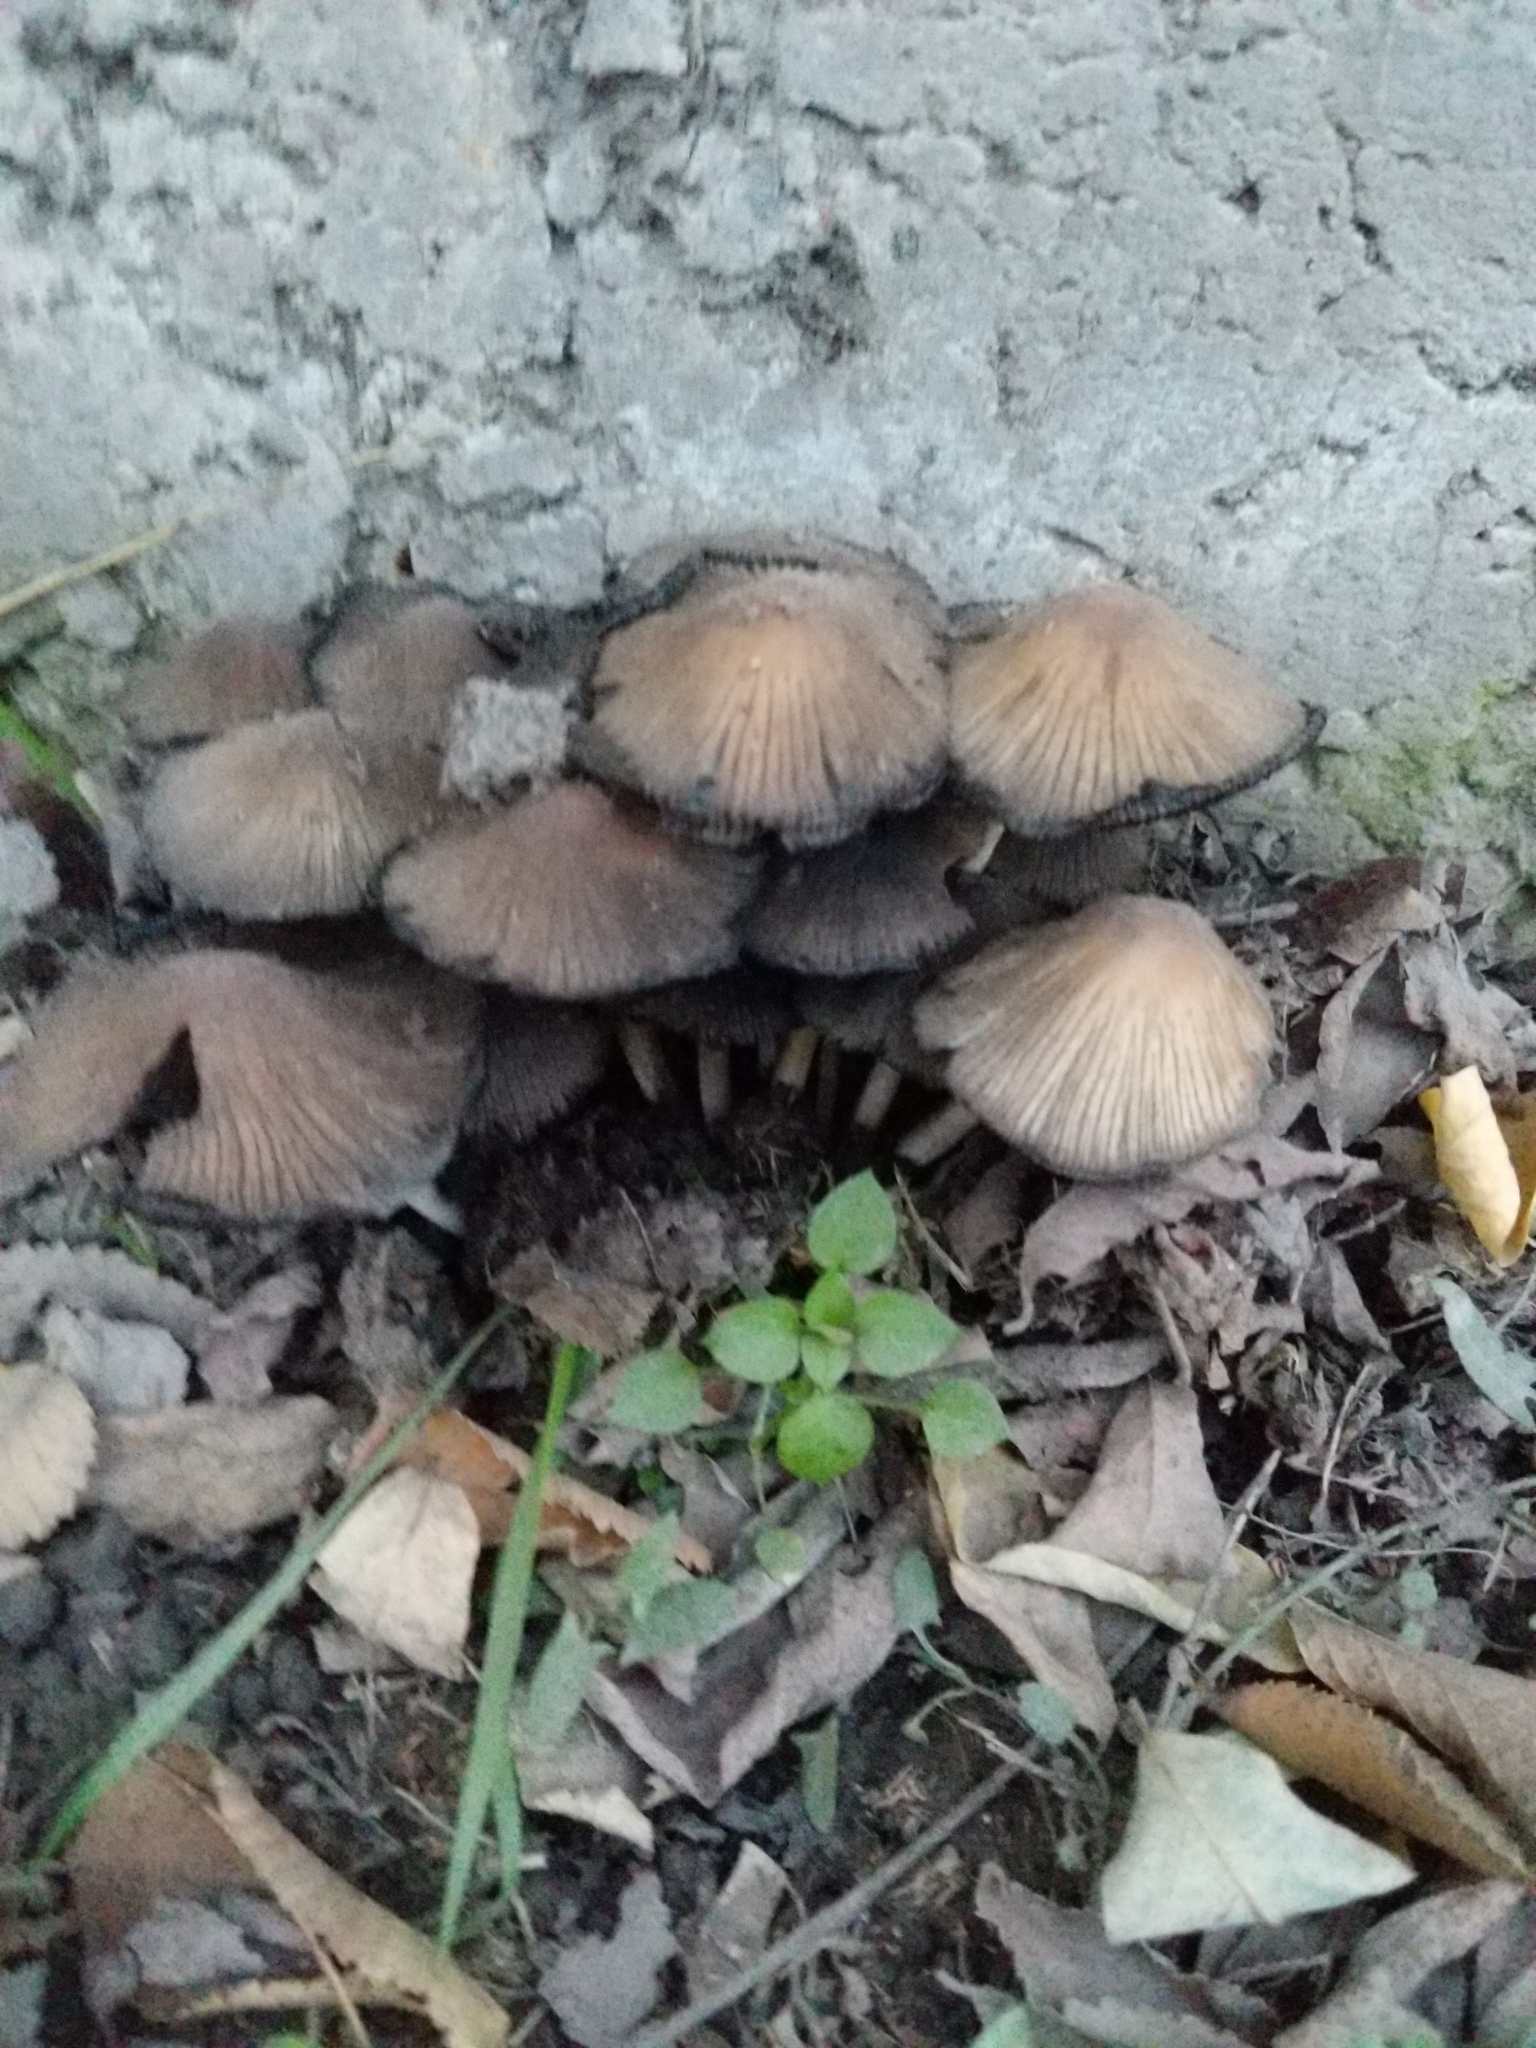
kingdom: Fungi
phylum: Basidiomycota
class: Agaricomycetes
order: Agaricales
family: Psathyrellaceae
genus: Coprinellus
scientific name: Coprinellus micaceus
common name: Glistening ink-cap
